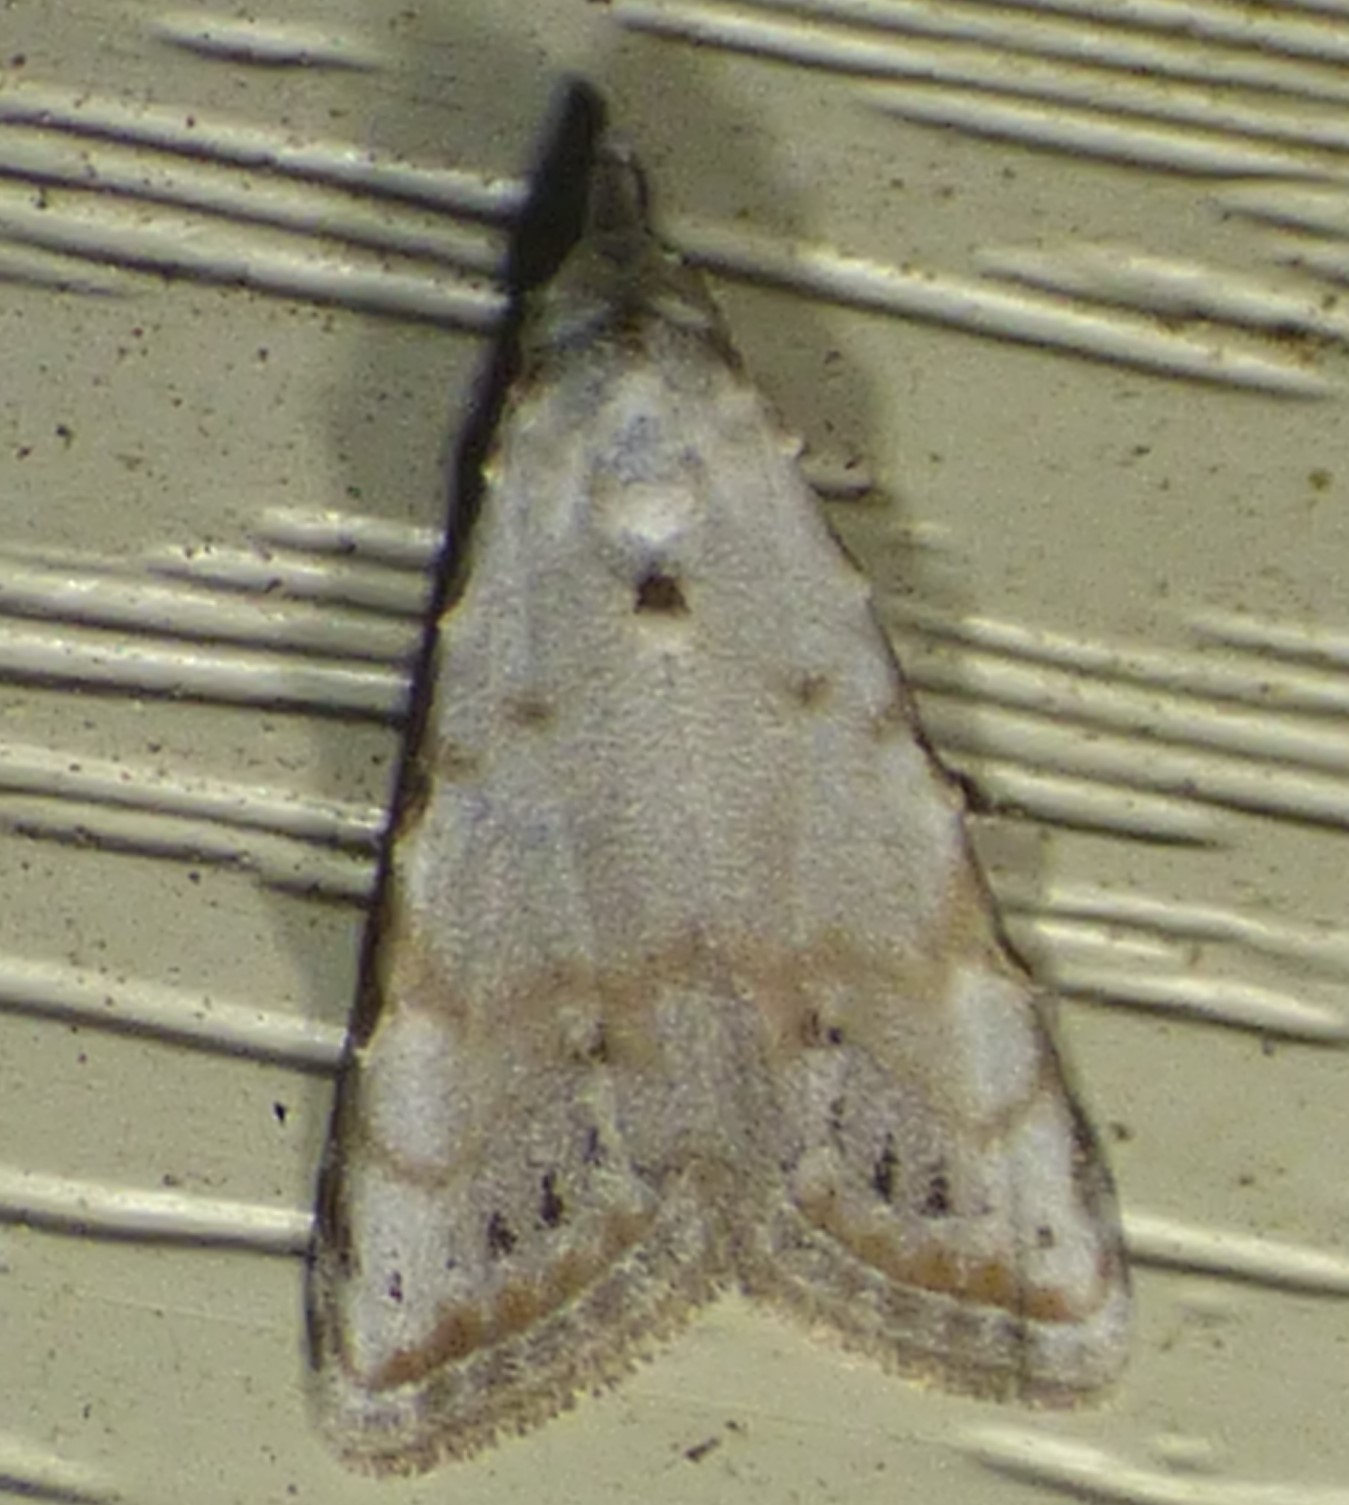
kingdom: Animalia
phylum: Arthropoda
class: Insecta
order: Lepidoptera
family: Nolidae
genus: Nola
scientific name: Nola cereella
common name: Sorghum webworm moth
